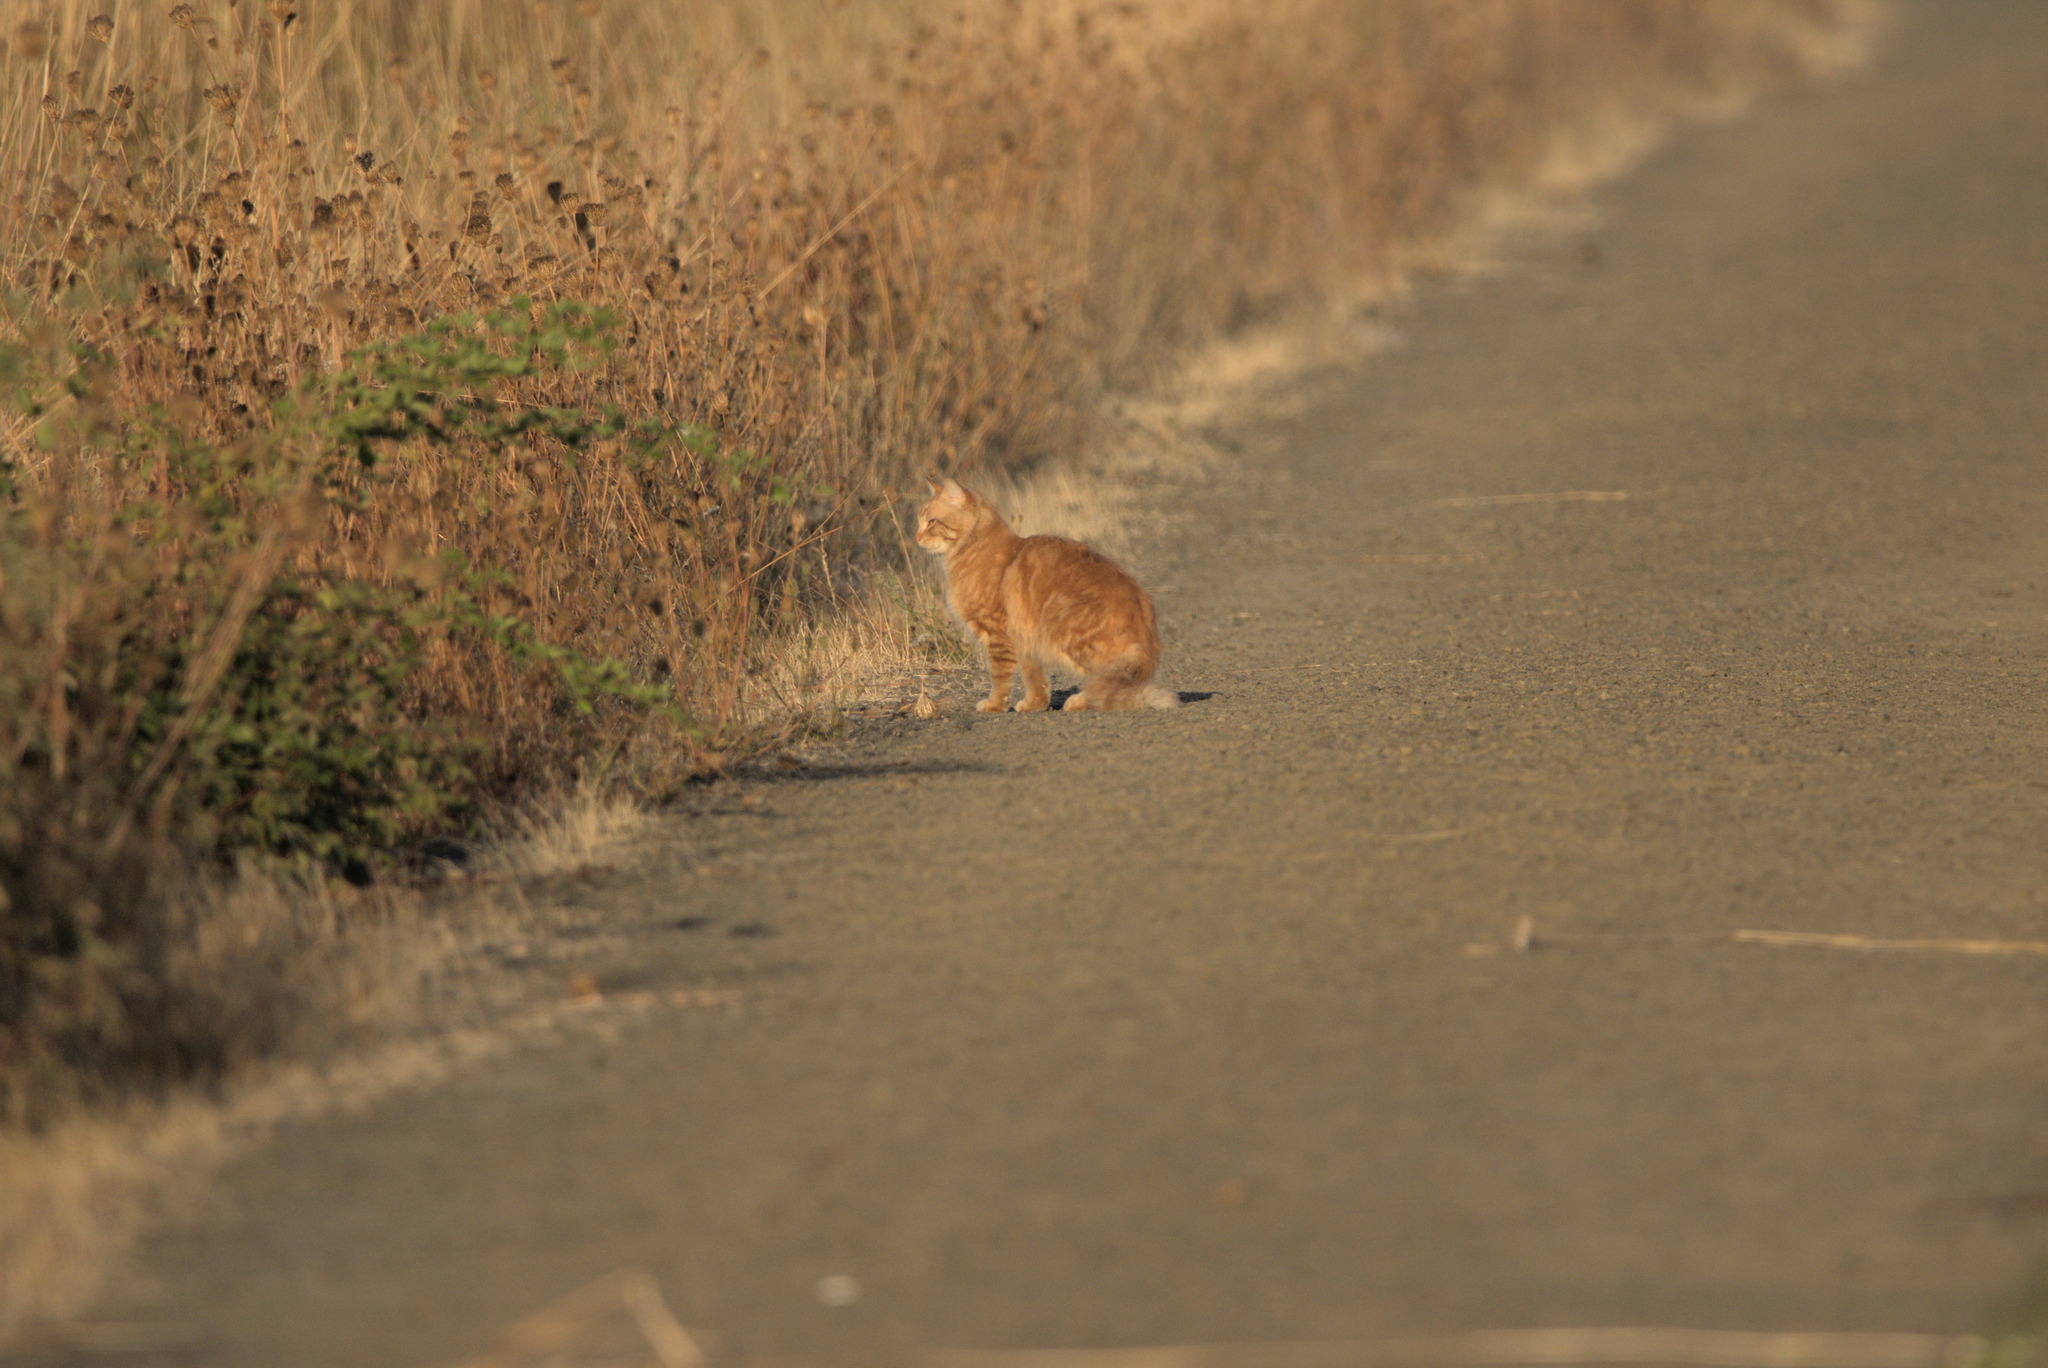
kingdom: Animalia
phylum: Chordata
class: Mammalia
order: Carnivora
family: Felidae
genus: Felis
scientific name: Felis catus
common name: Domestic cat
